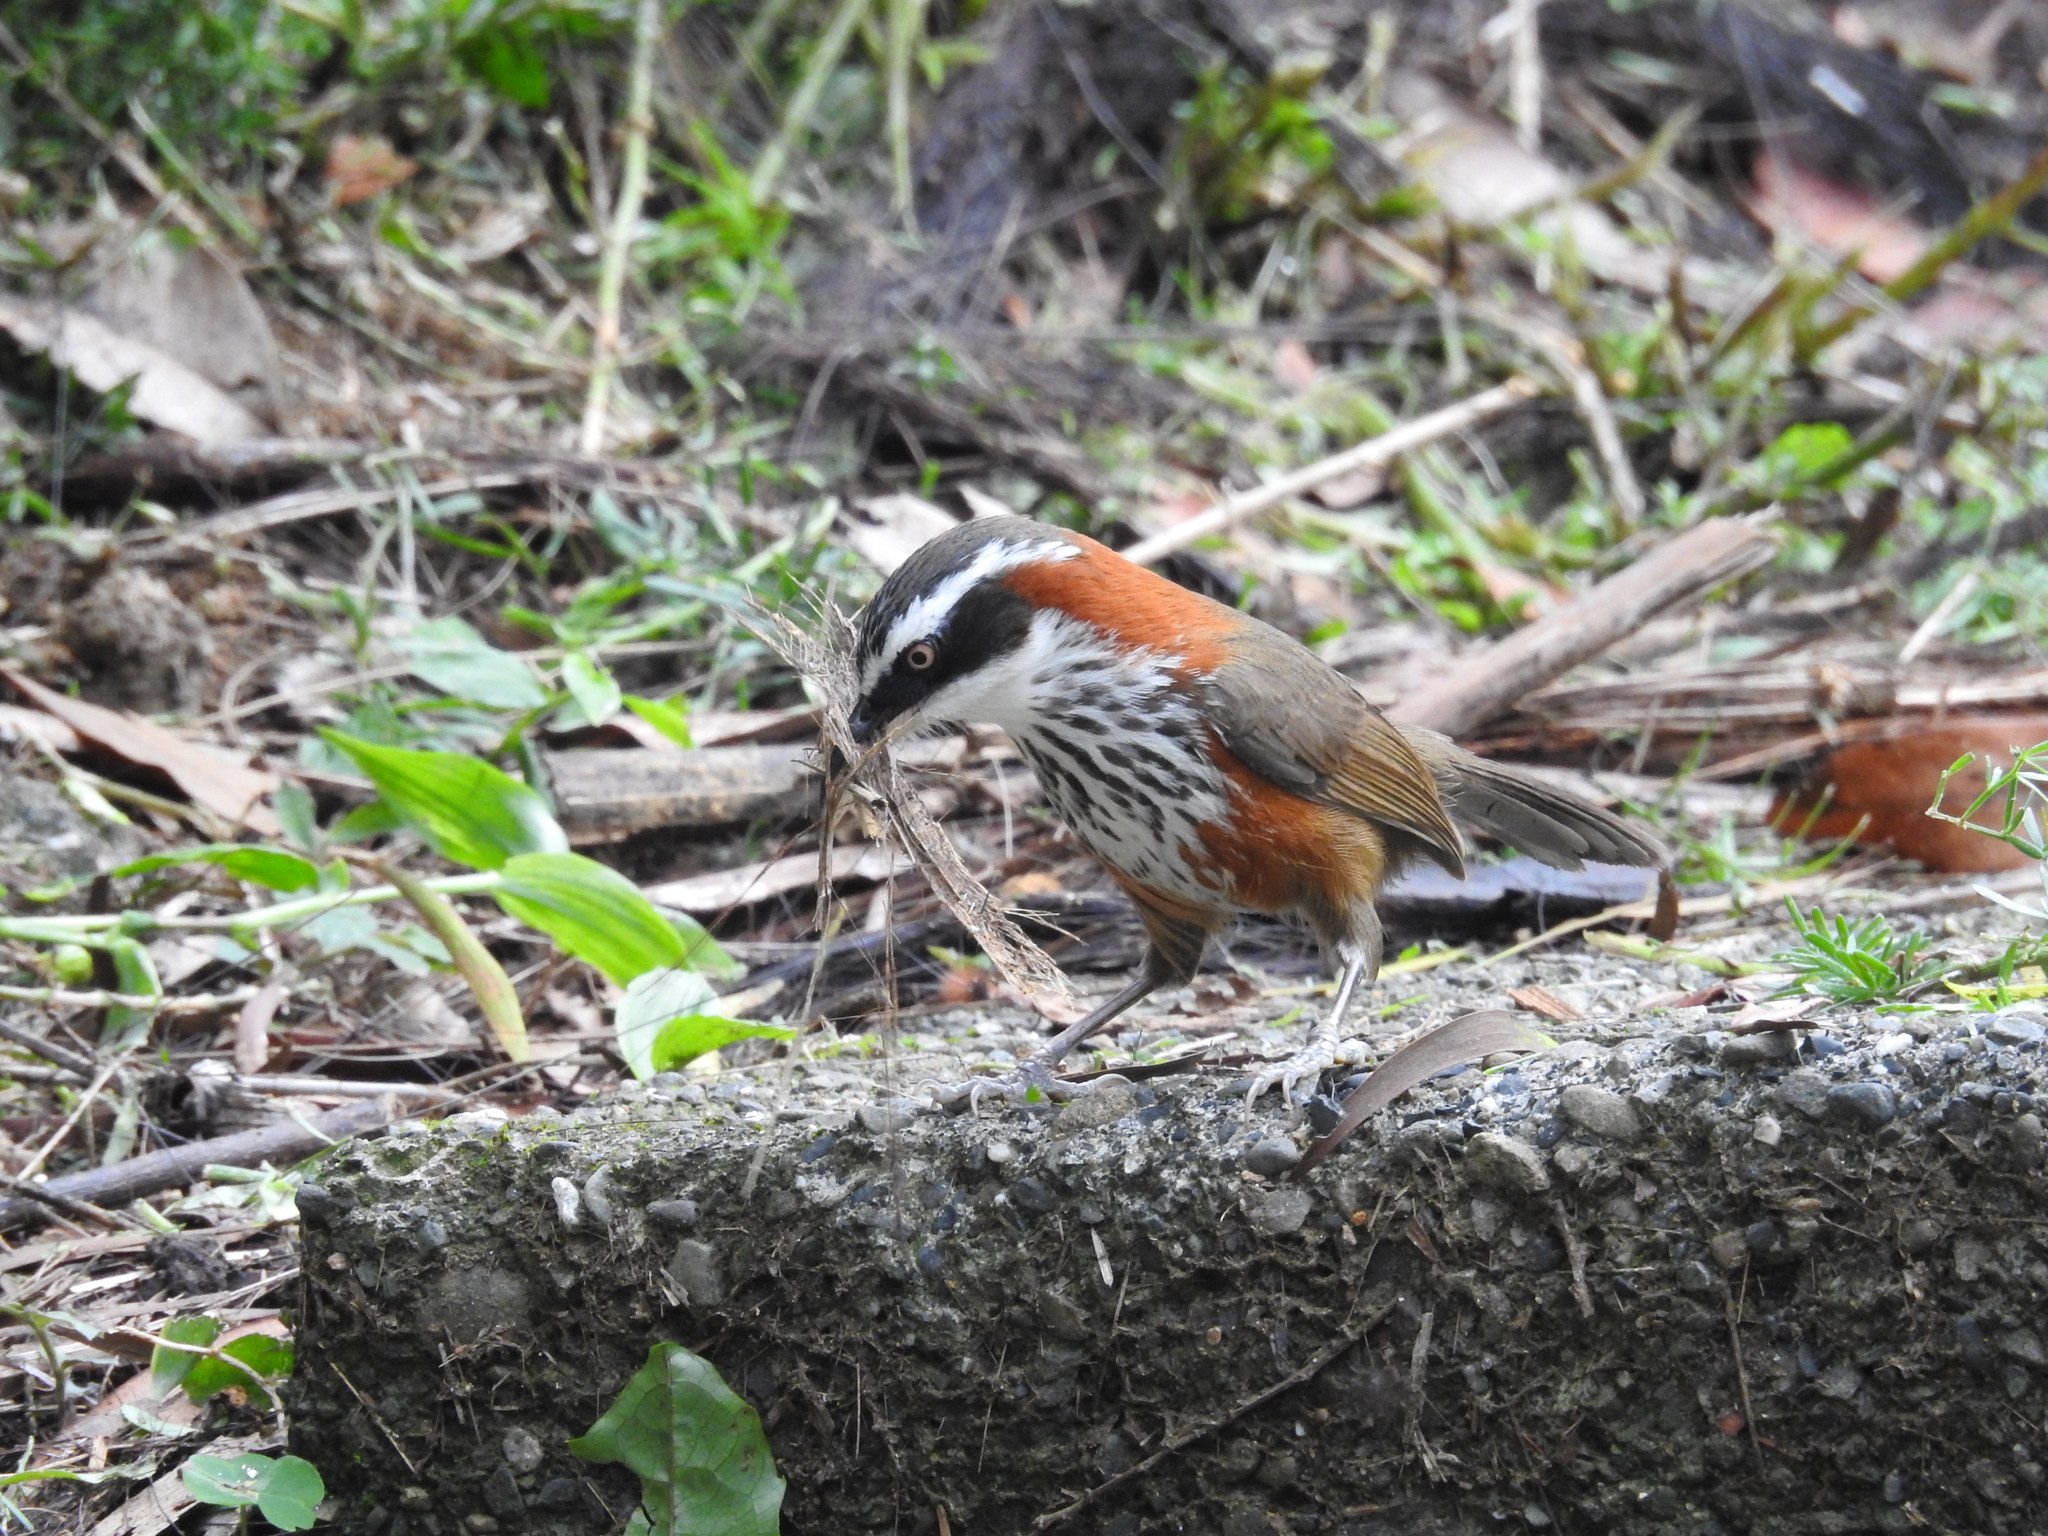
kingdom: Animalia
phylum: Chordata
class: Aves
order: Passeriformes
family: Timaliidae
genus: Pomatorhinus
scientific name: Pomatorhinus musicus
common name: Taiwan scimitar-babbler
